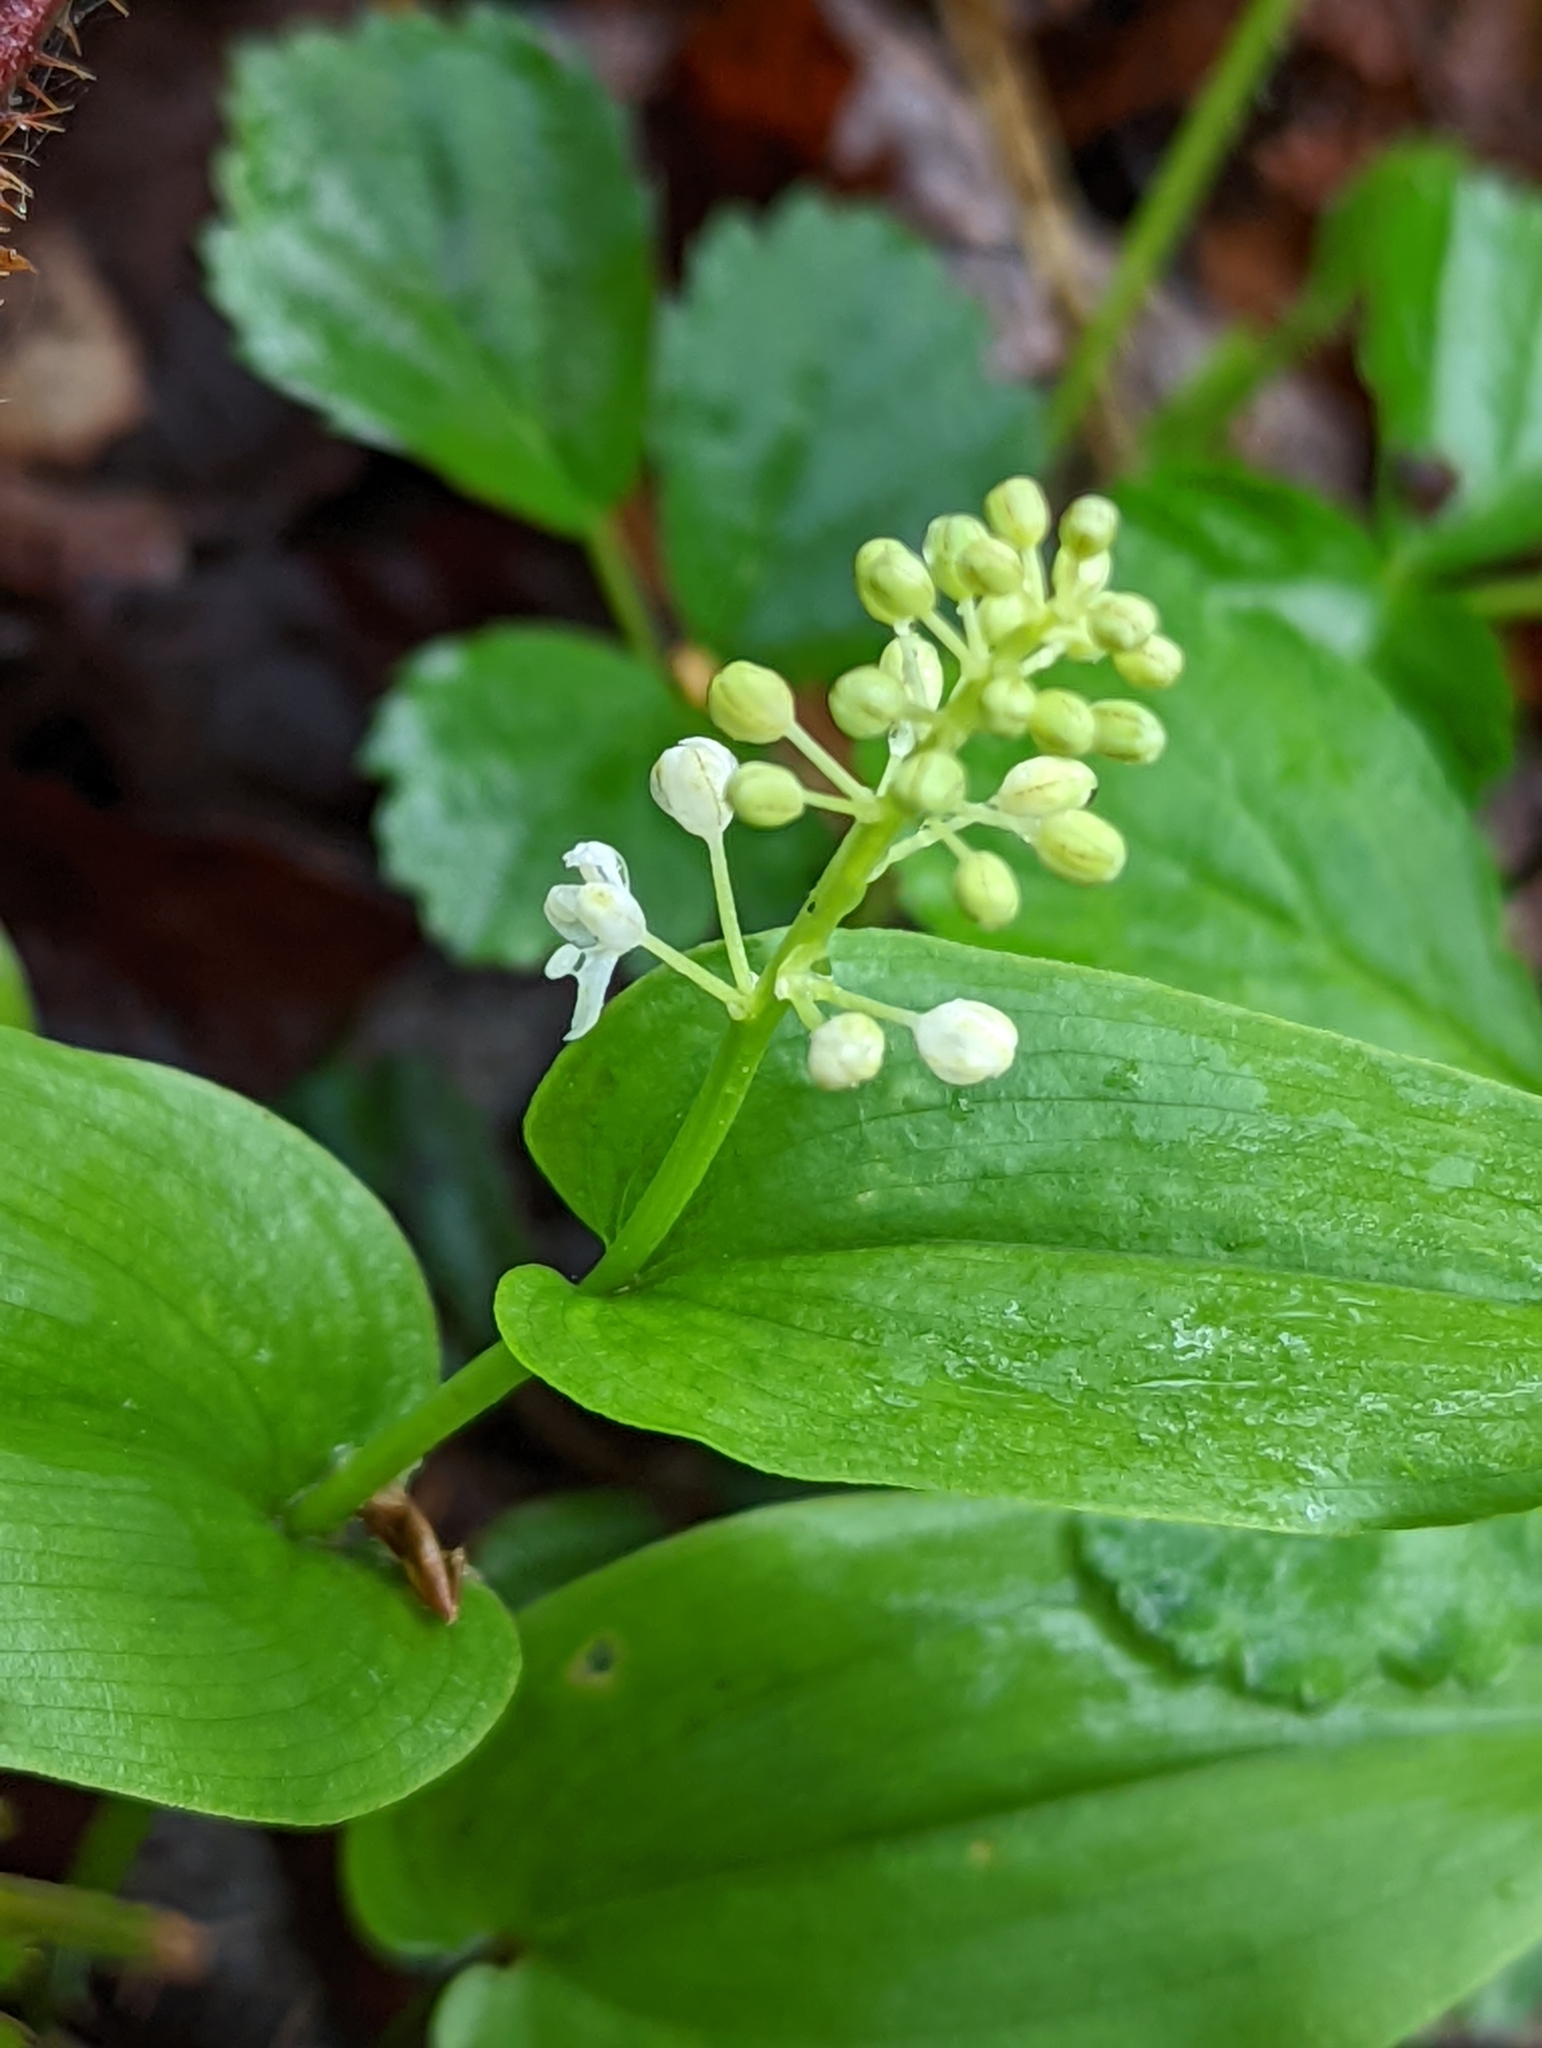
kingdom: Plantae
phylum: Tracheophyta
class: Liliopsida
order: Asparagales
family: Asparagaceae
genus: Maianthemum
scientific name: Maianthemum canadense
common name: False lily-of-the-valley
